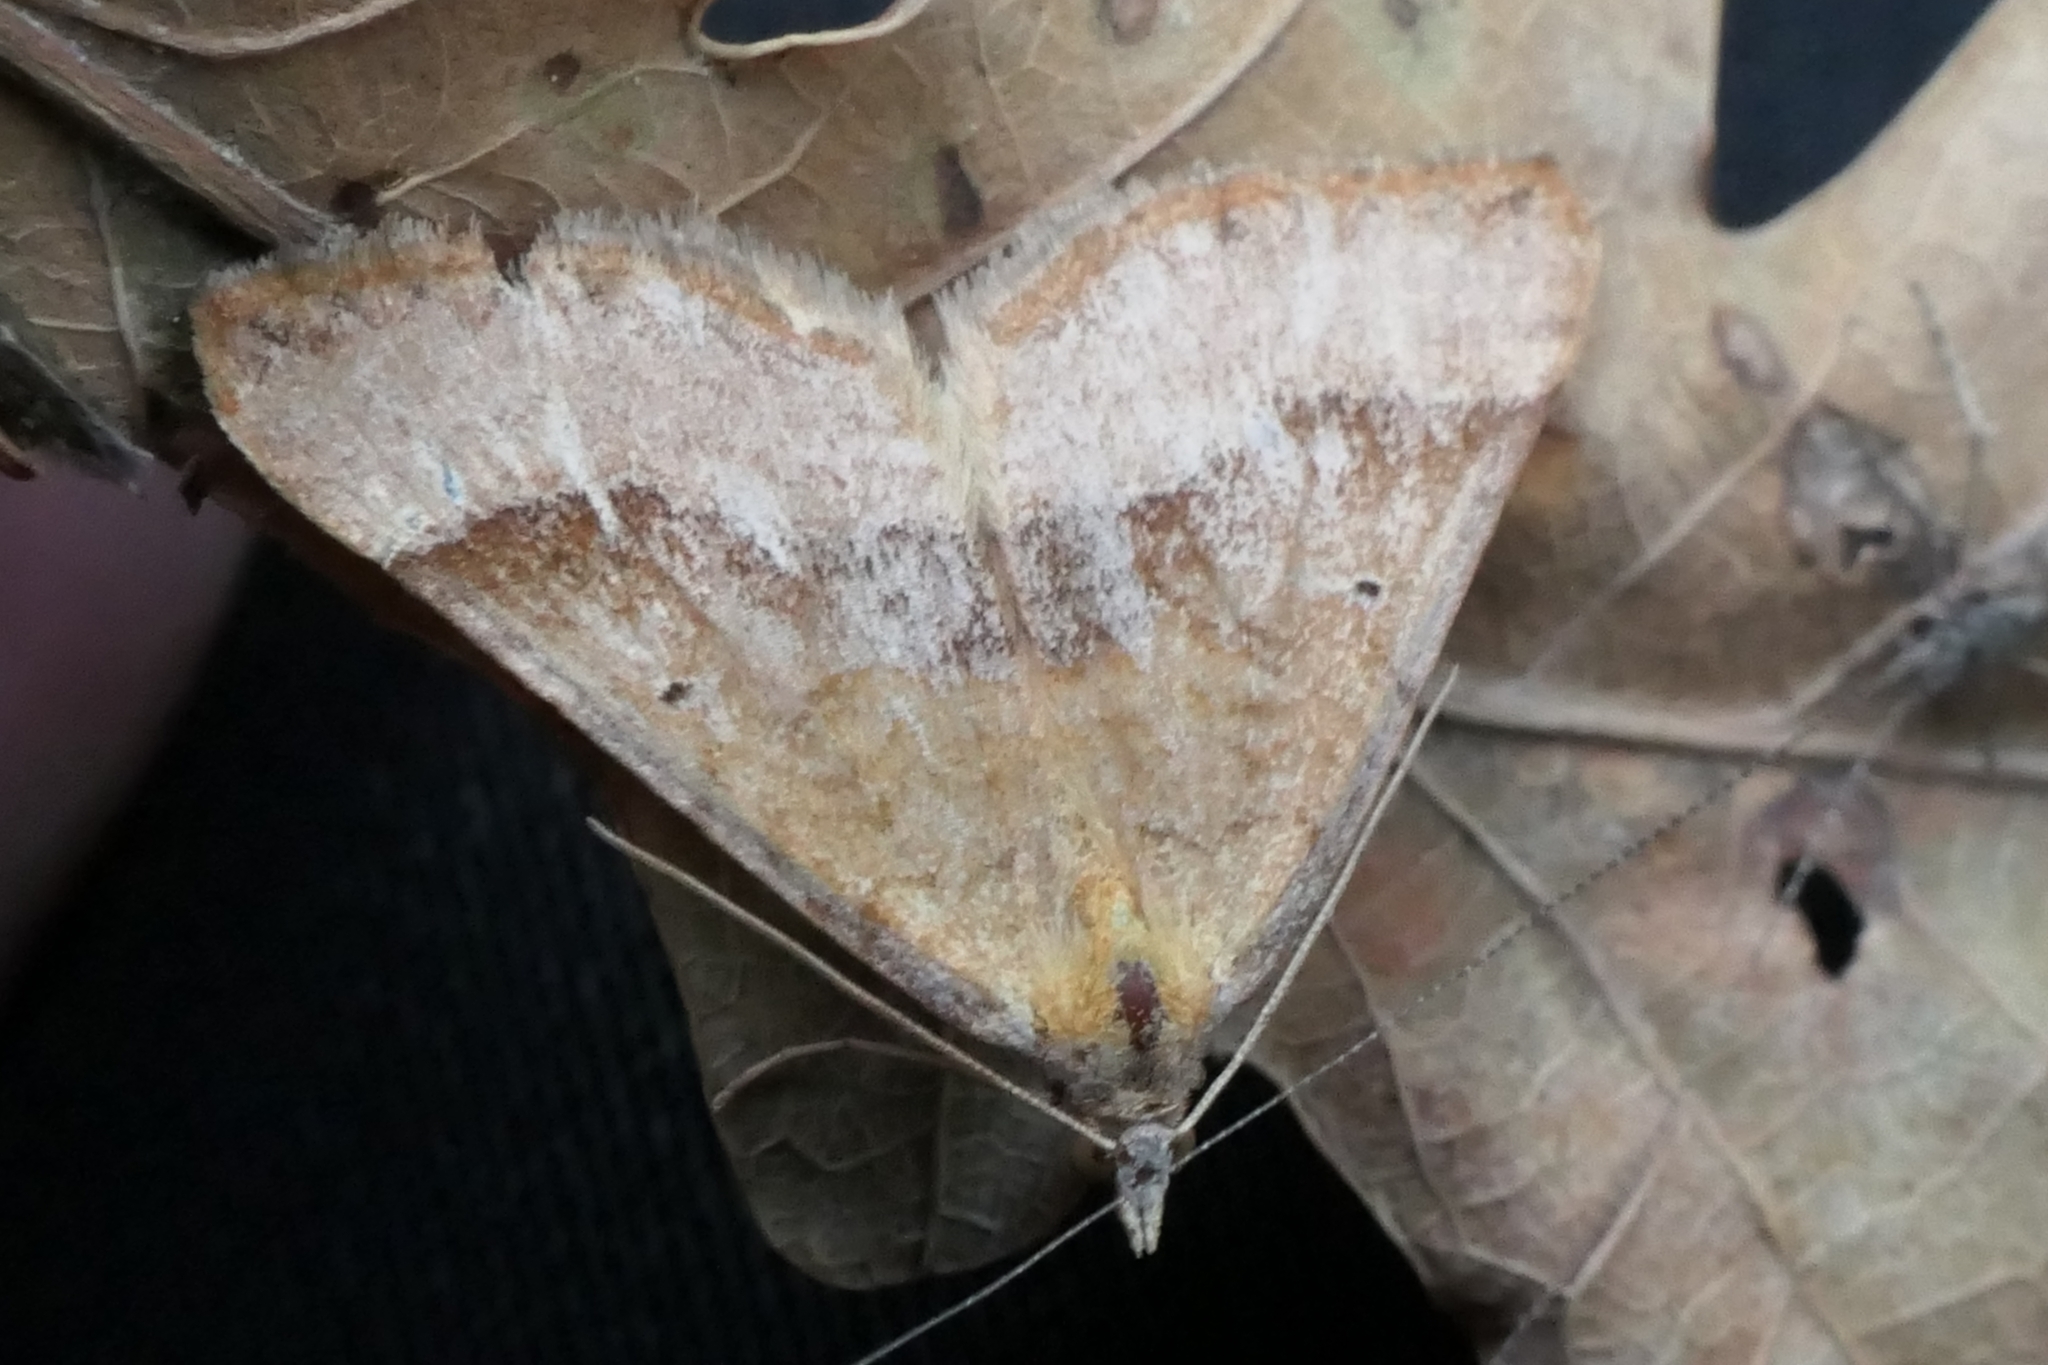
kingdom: Animalia
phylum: Arthropoda
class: Insecta
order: Lepidoptera
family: Geometridae
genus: Anachloris
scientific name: Anachloris subochraria
